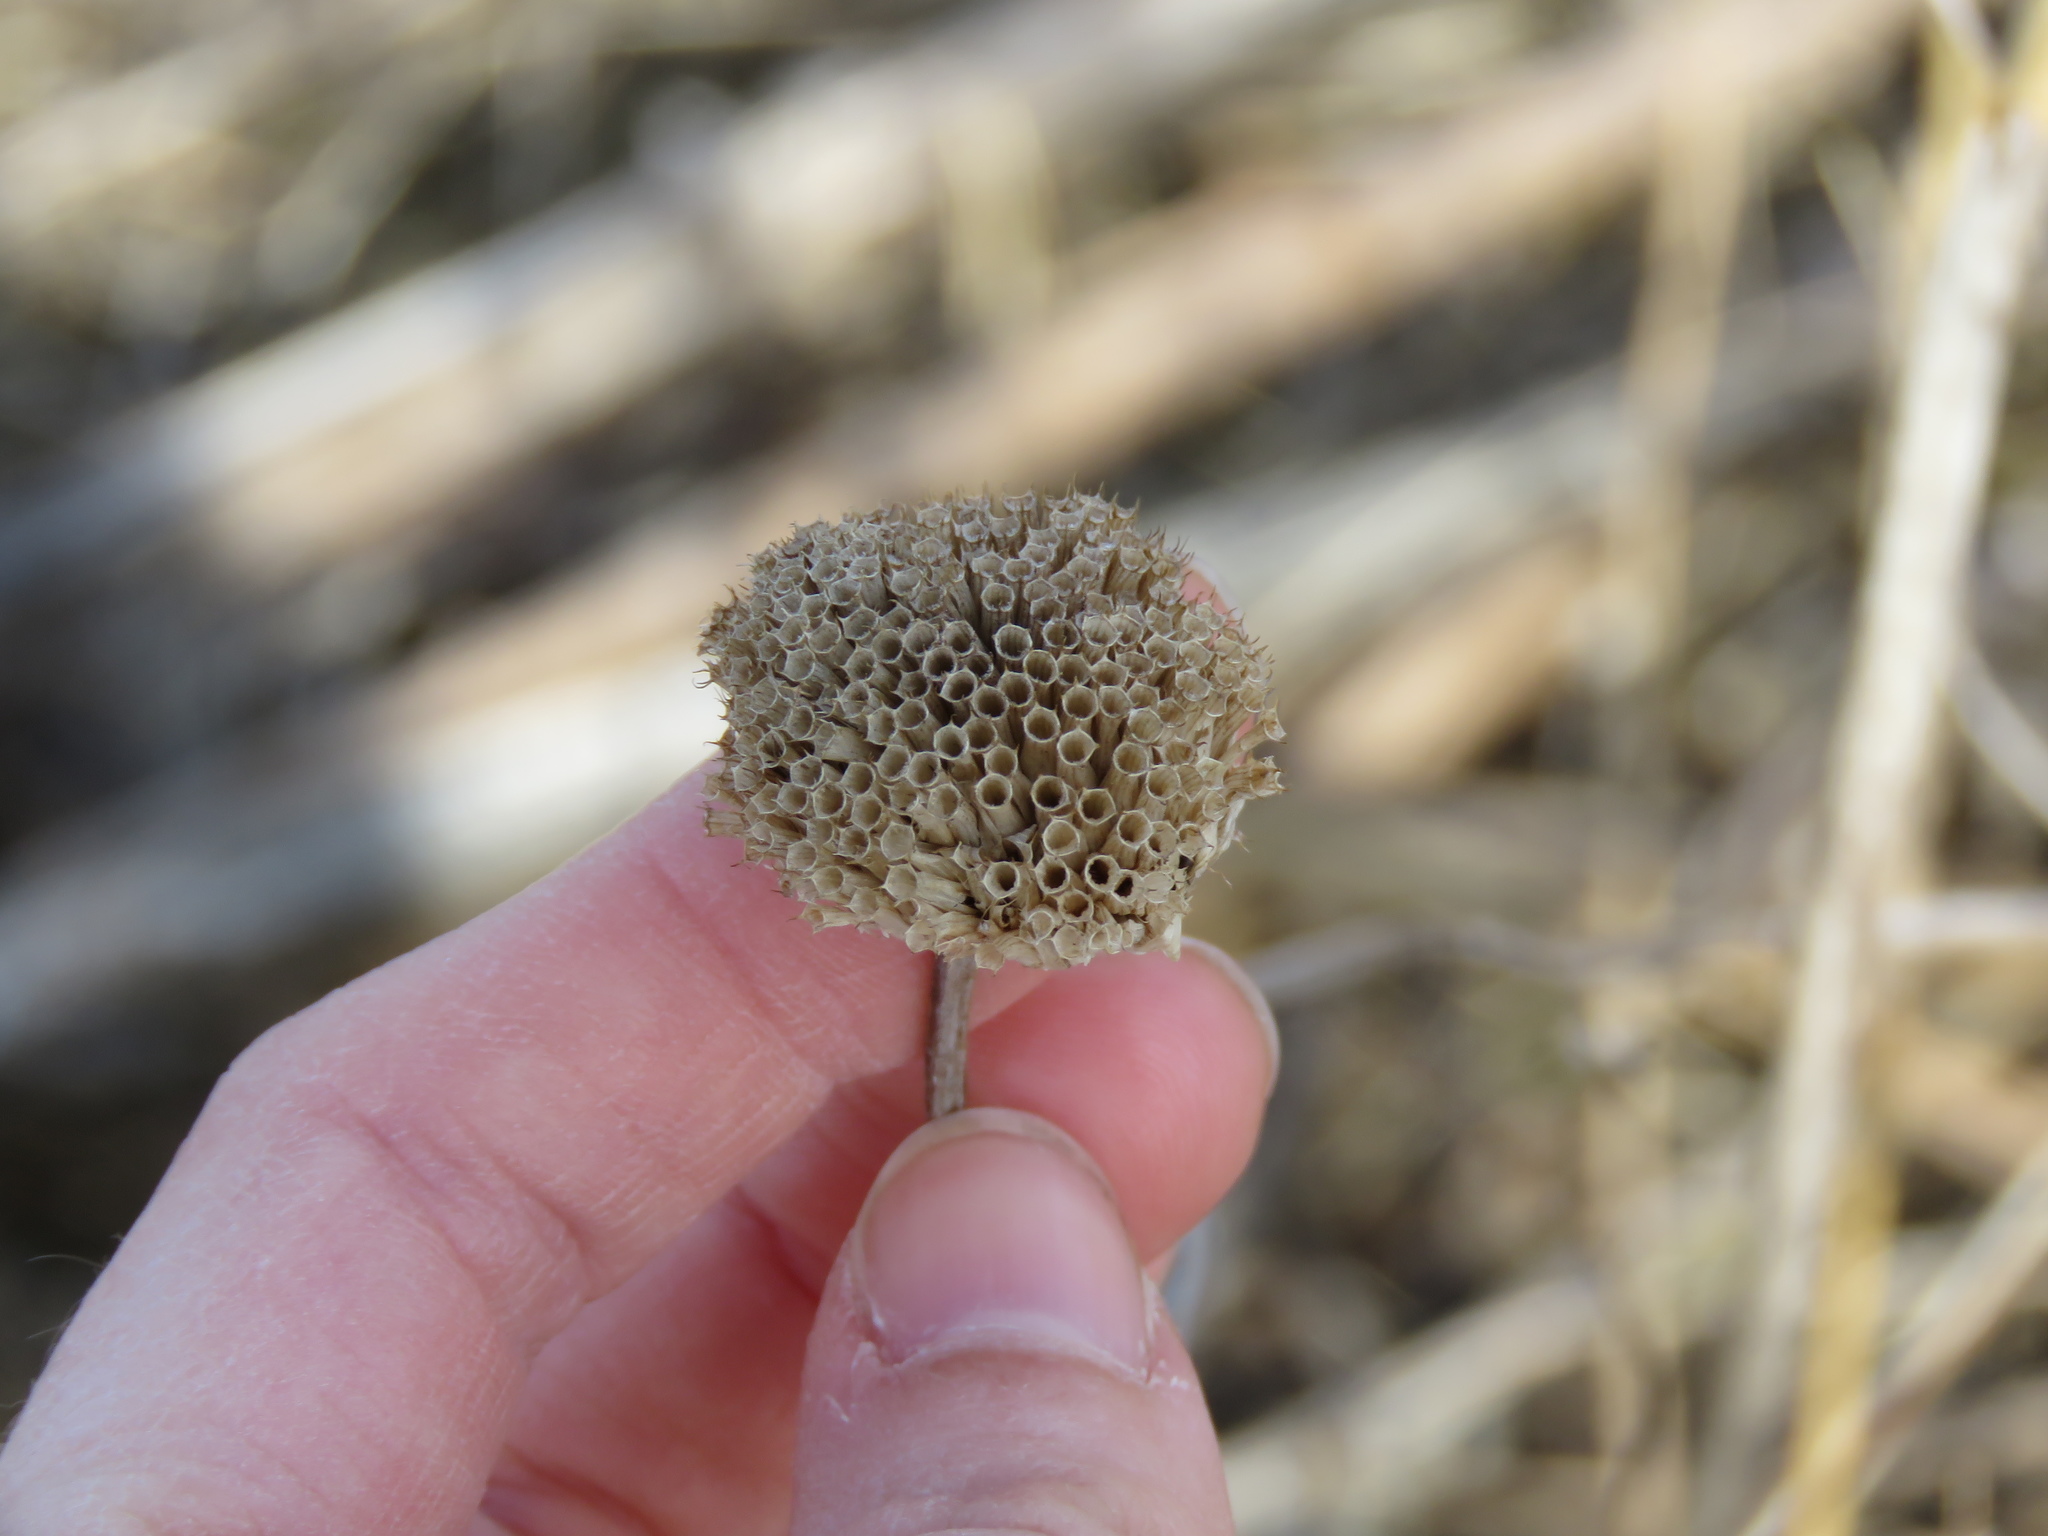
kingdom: Plantae
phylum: Tracheophyta
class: Magnoliopsida
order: Lamiales
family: Lamiaceae
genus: Monarda
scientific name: Monarda fistulosa
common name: Purple beebalm
